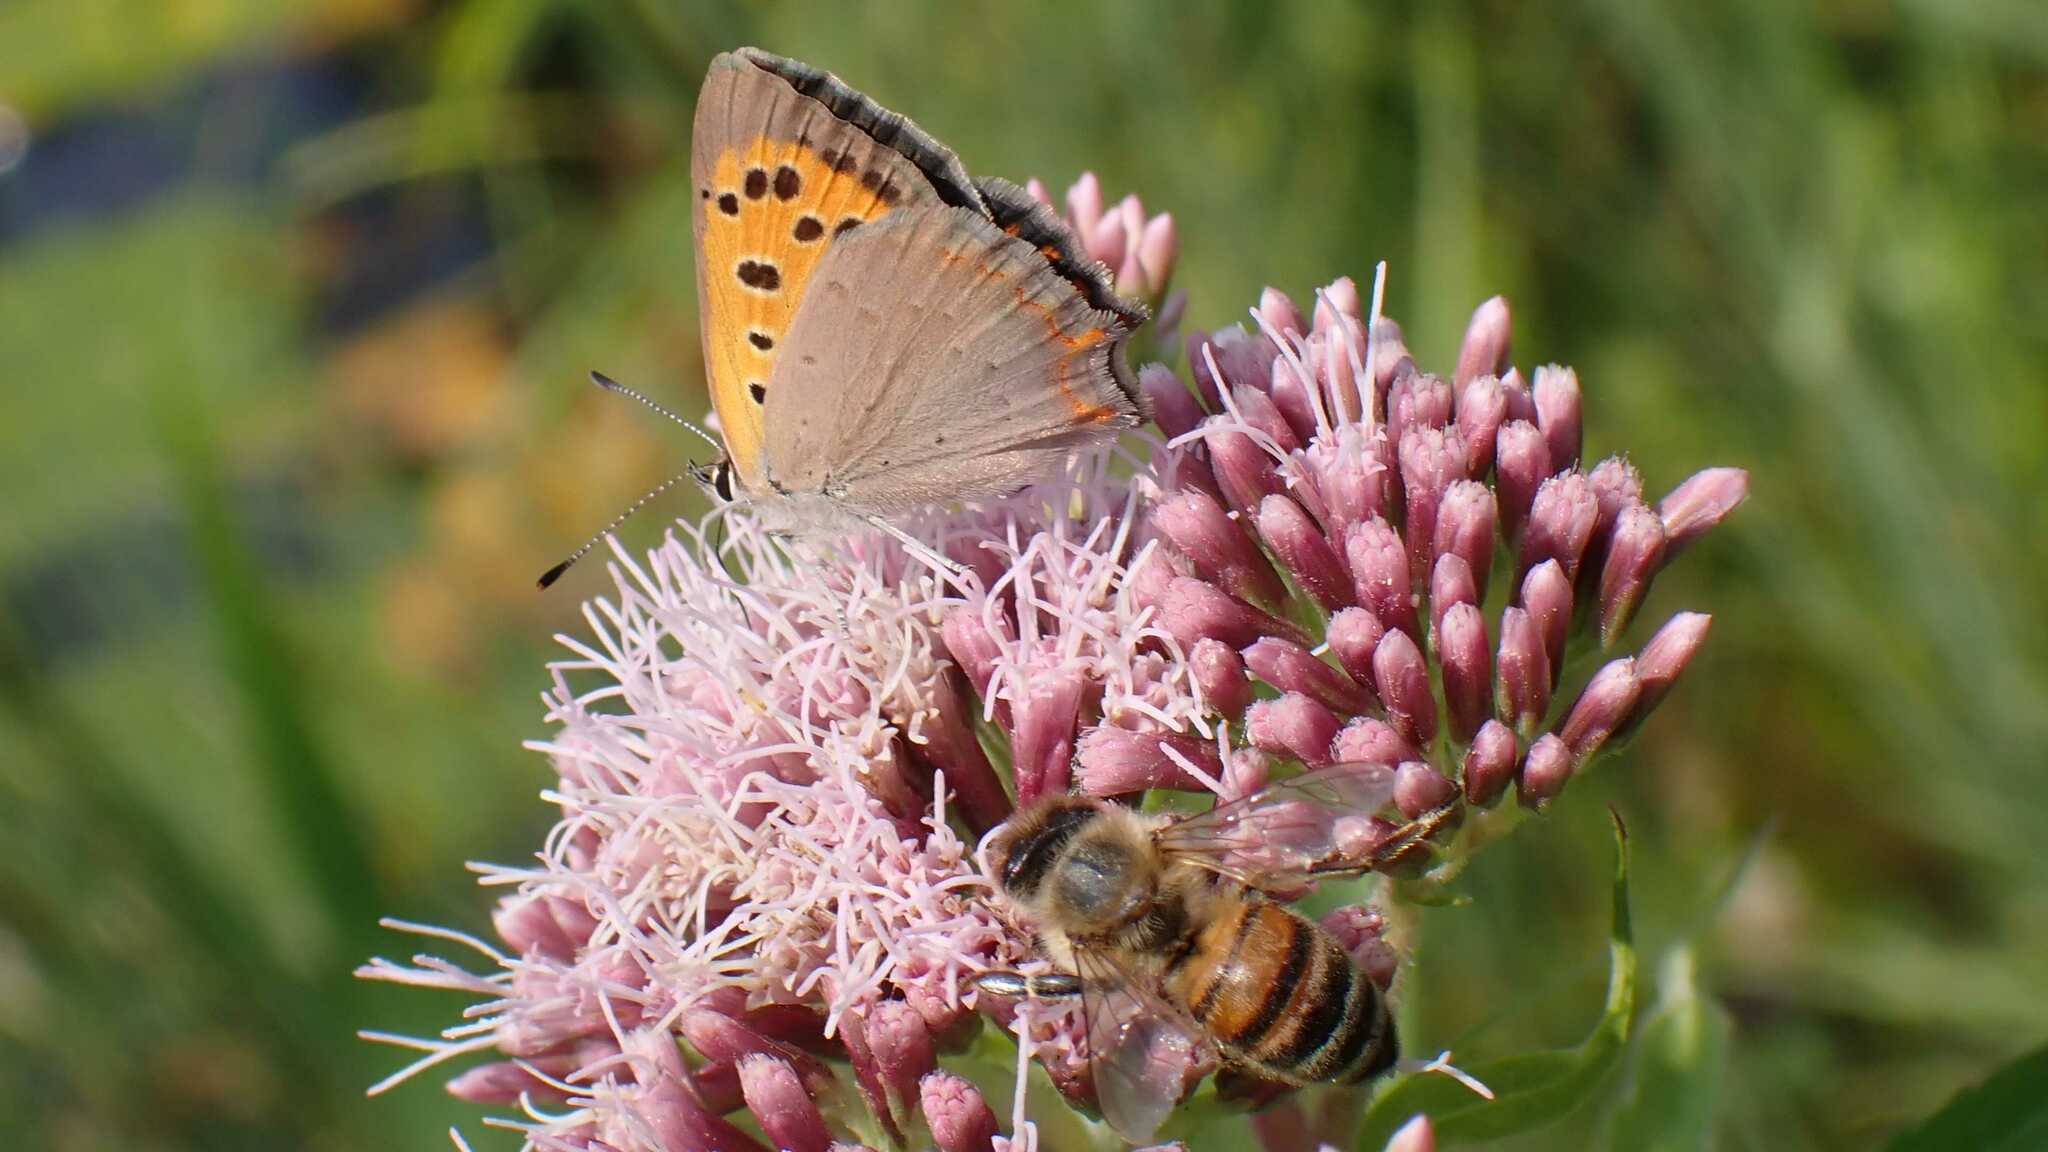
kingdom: Animalia
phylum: Arthropoda
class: Insecta
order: Lepidoptera
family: Lycaenidae
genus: Lycaena
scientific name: Lycaena phlaeas
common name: Small copper
